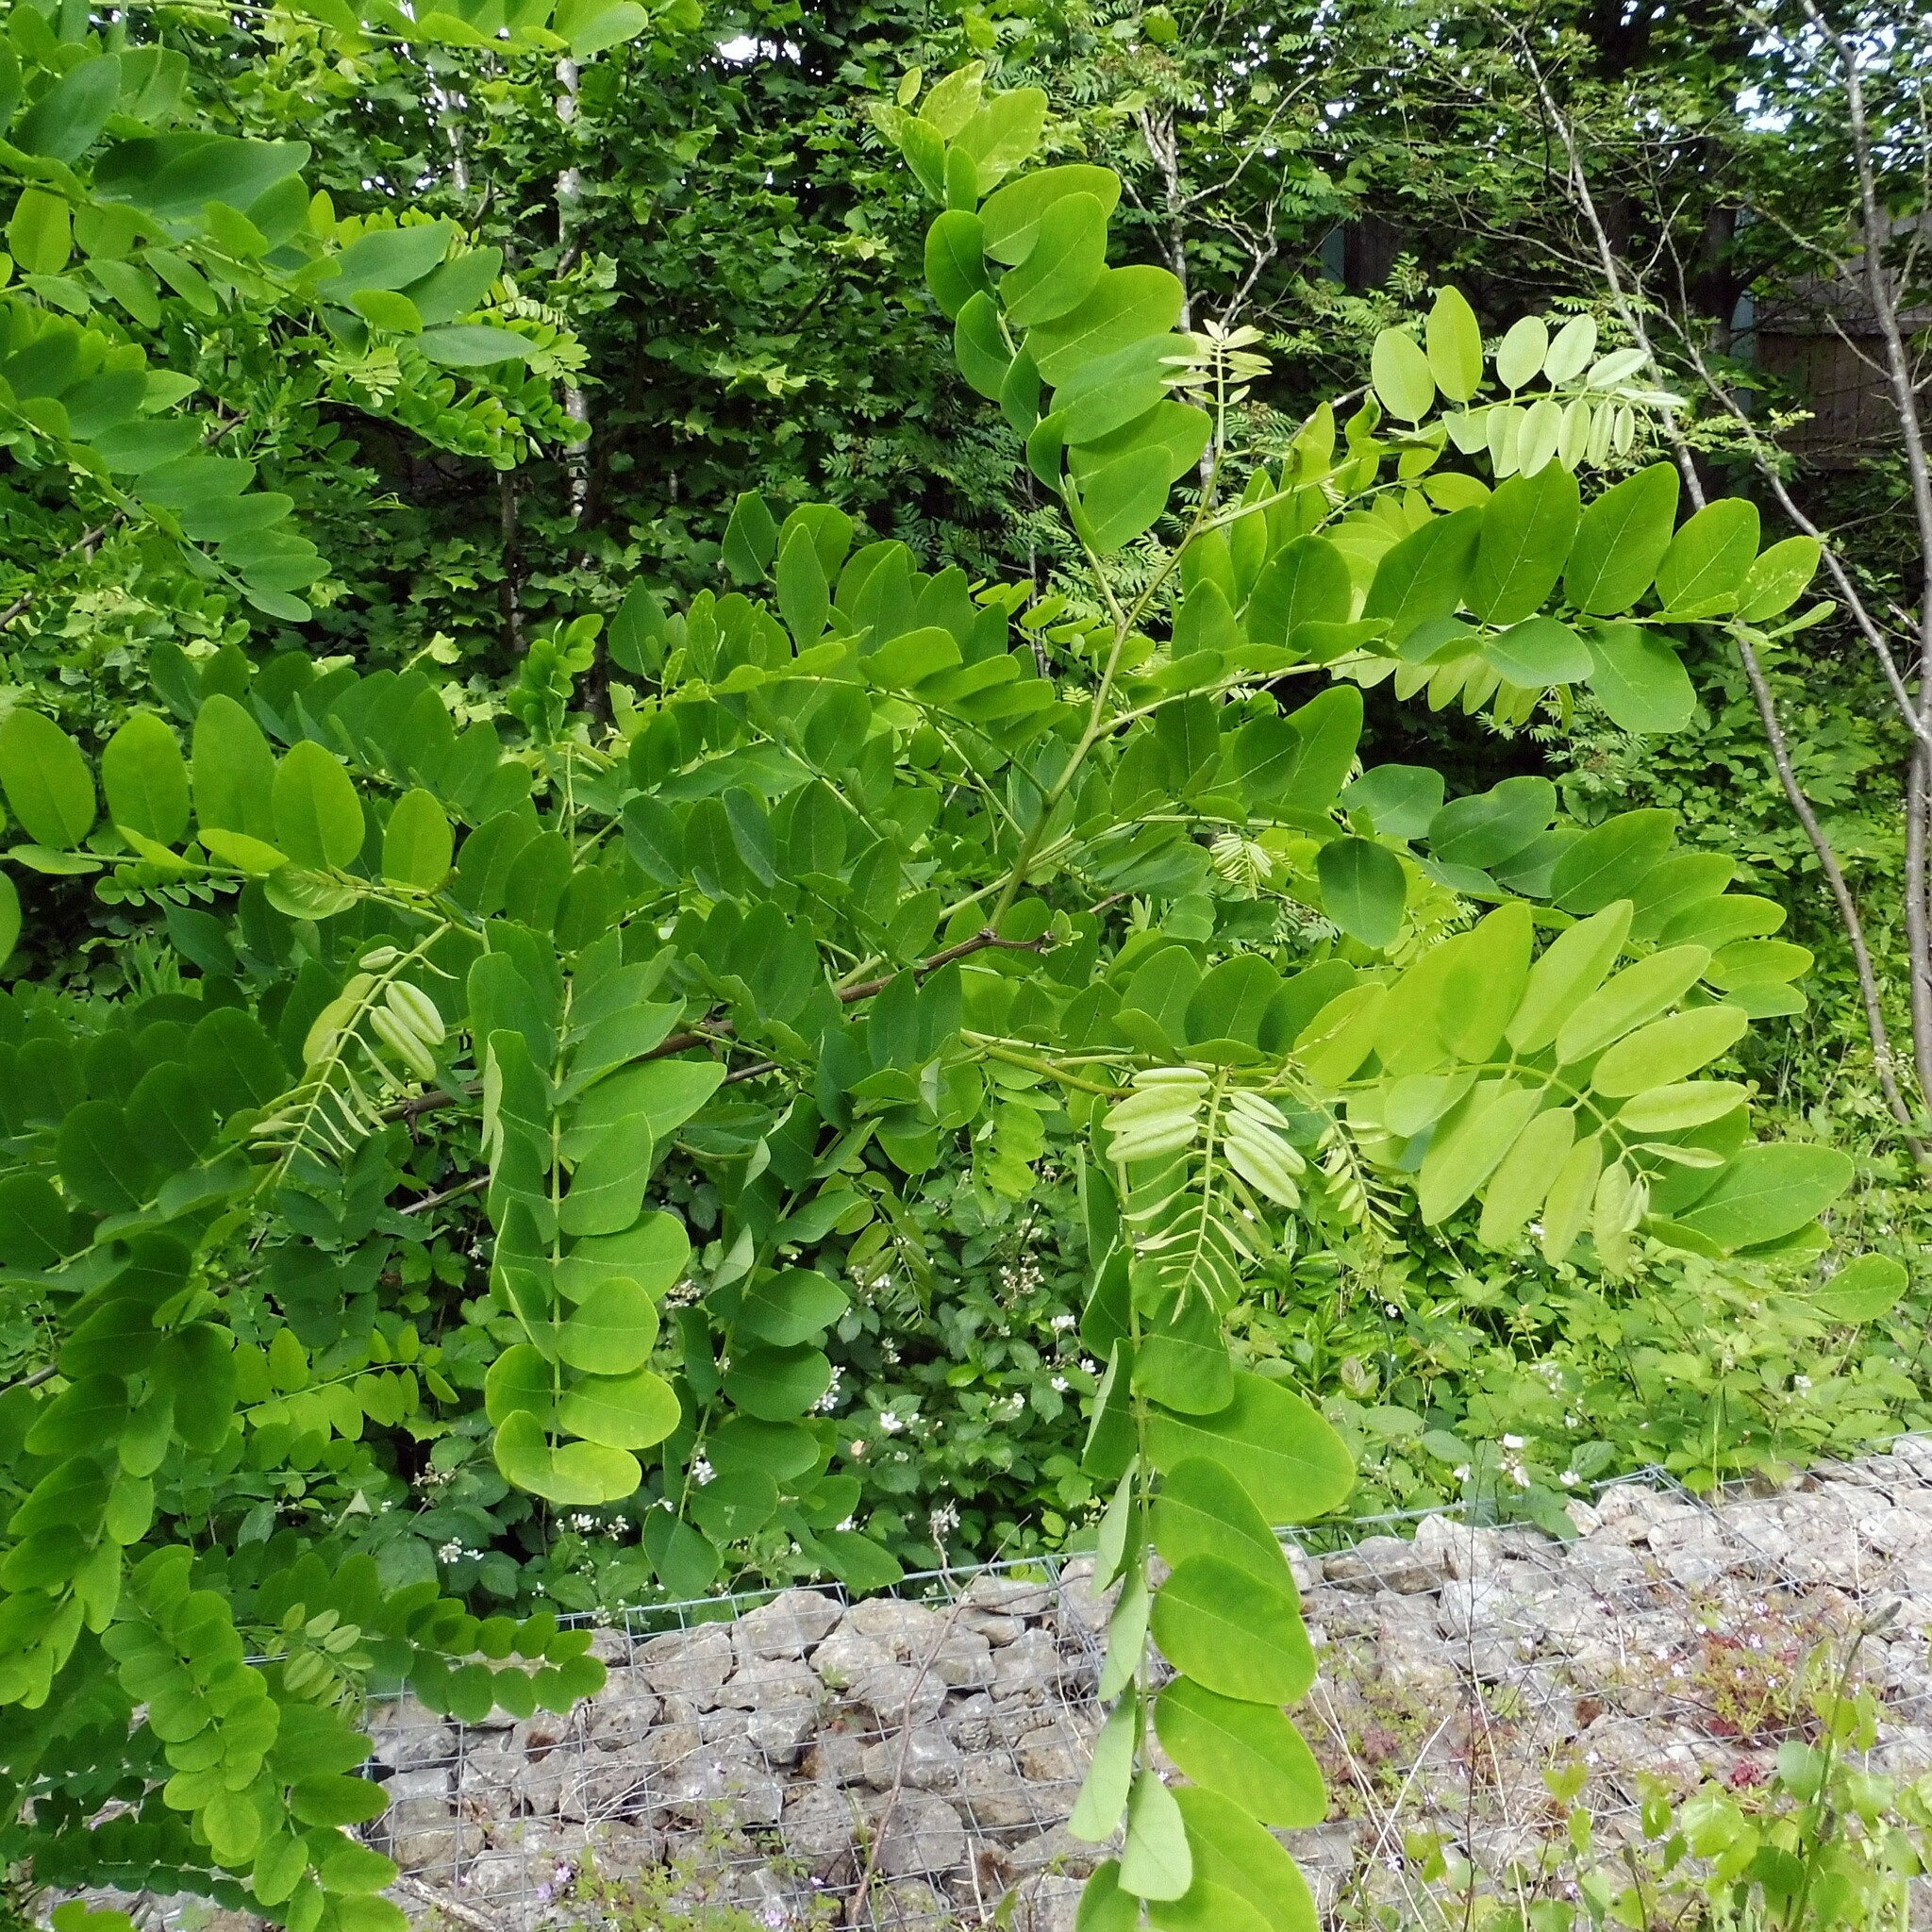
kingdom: Plantae
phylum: Tracheophyta
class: Magnoliopsida
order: Fabales
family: Fabaceae
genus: Robinia
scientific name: Robinia pseudoacacia
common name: Black locust
